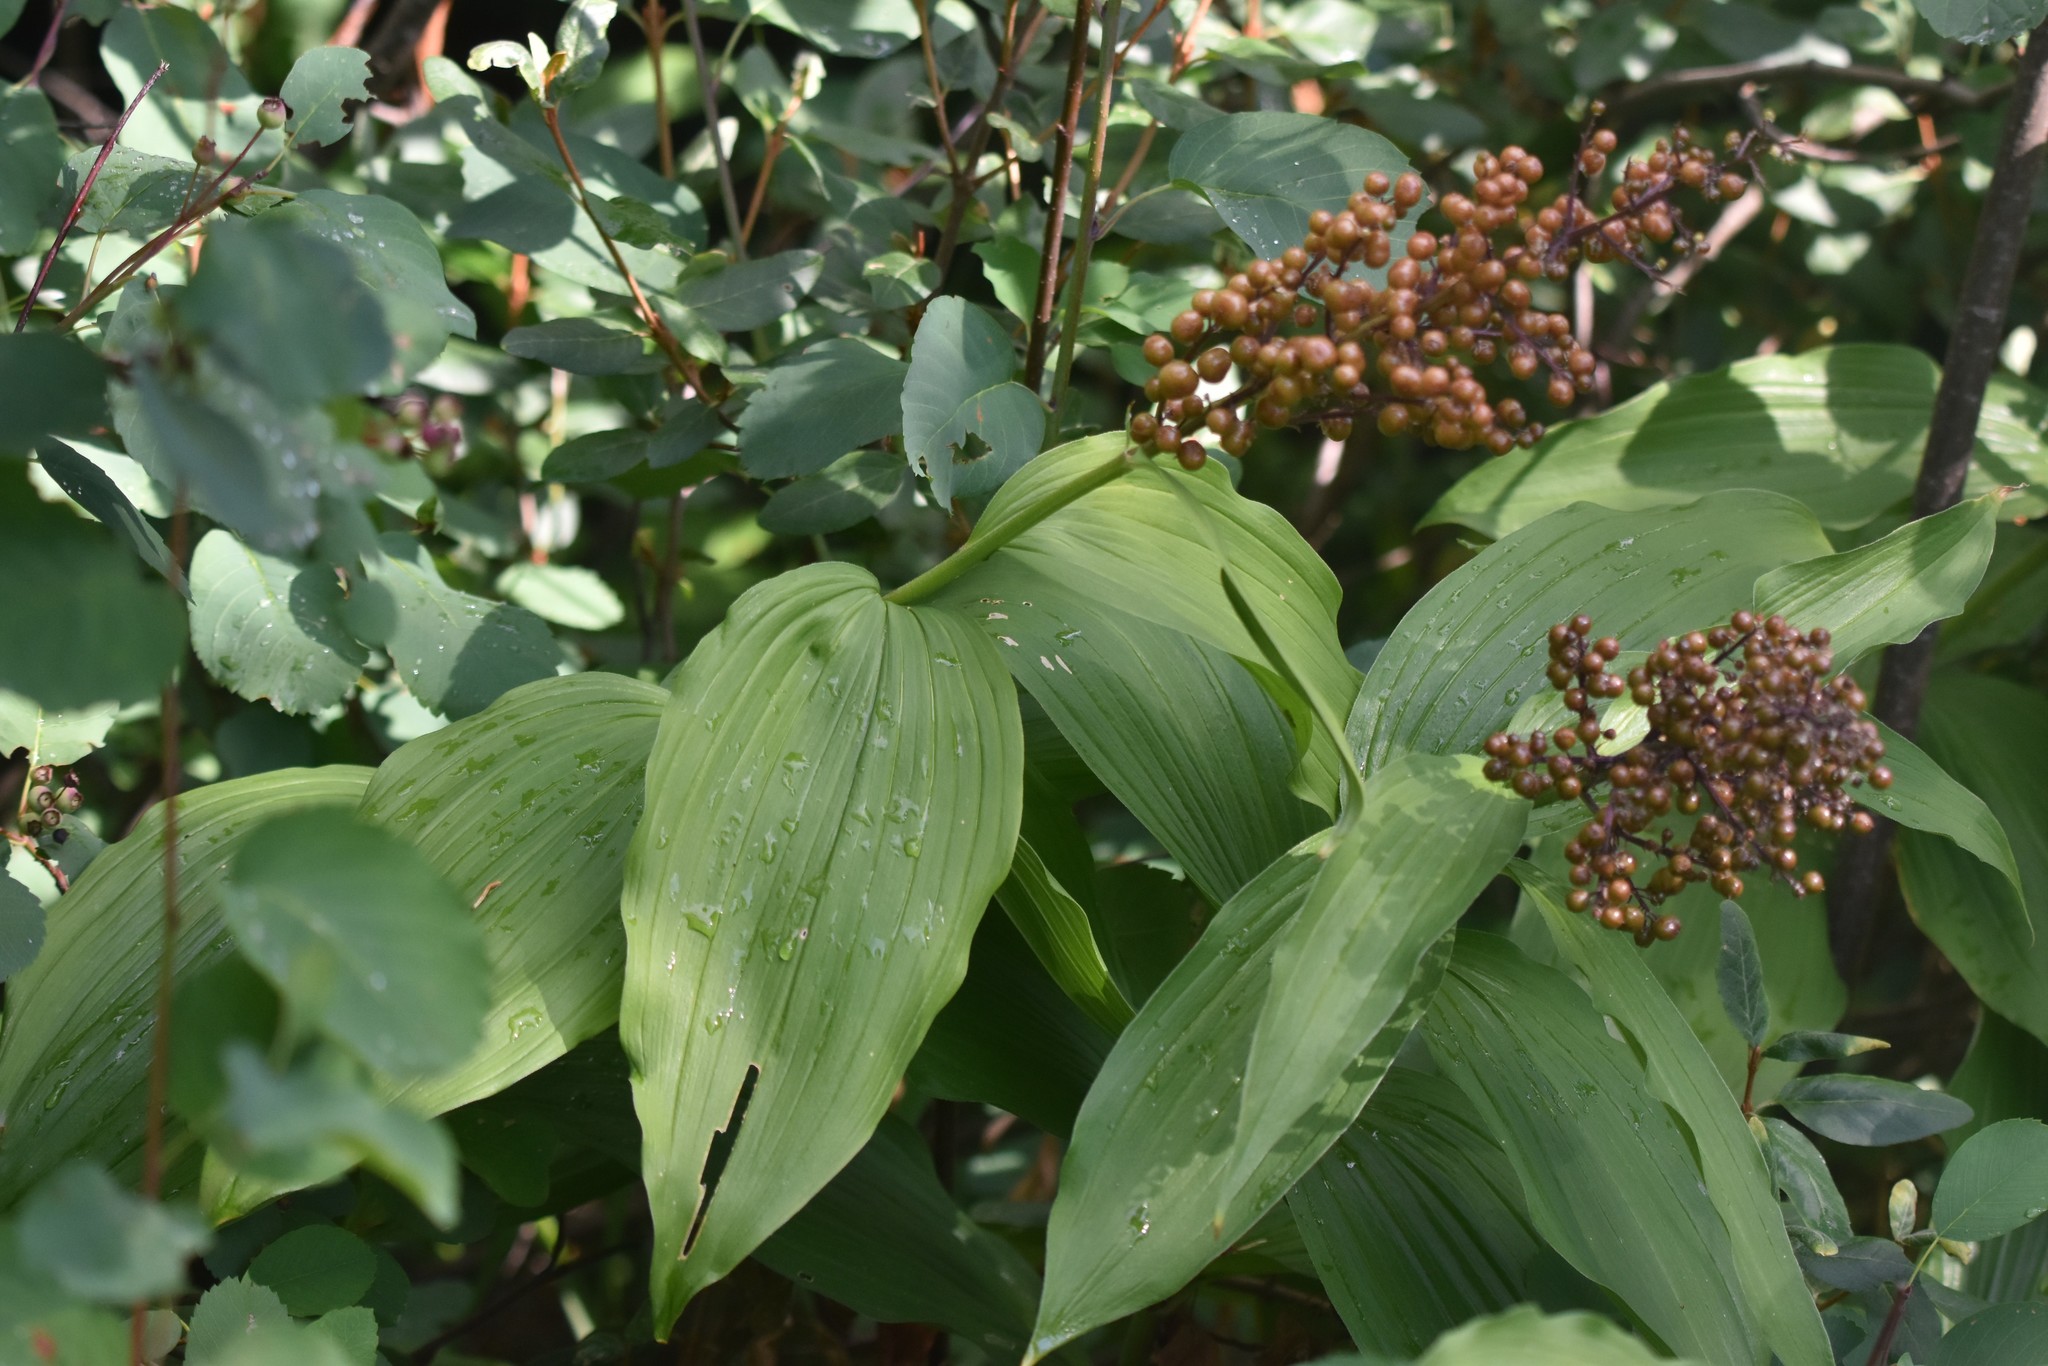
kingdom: Plantae
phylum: Tracheophyta
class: Liliopsida
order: Asparagales
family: Asparagaceae
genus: Maianthemum
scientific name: Maianthemum racemosum
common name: False spikenard
